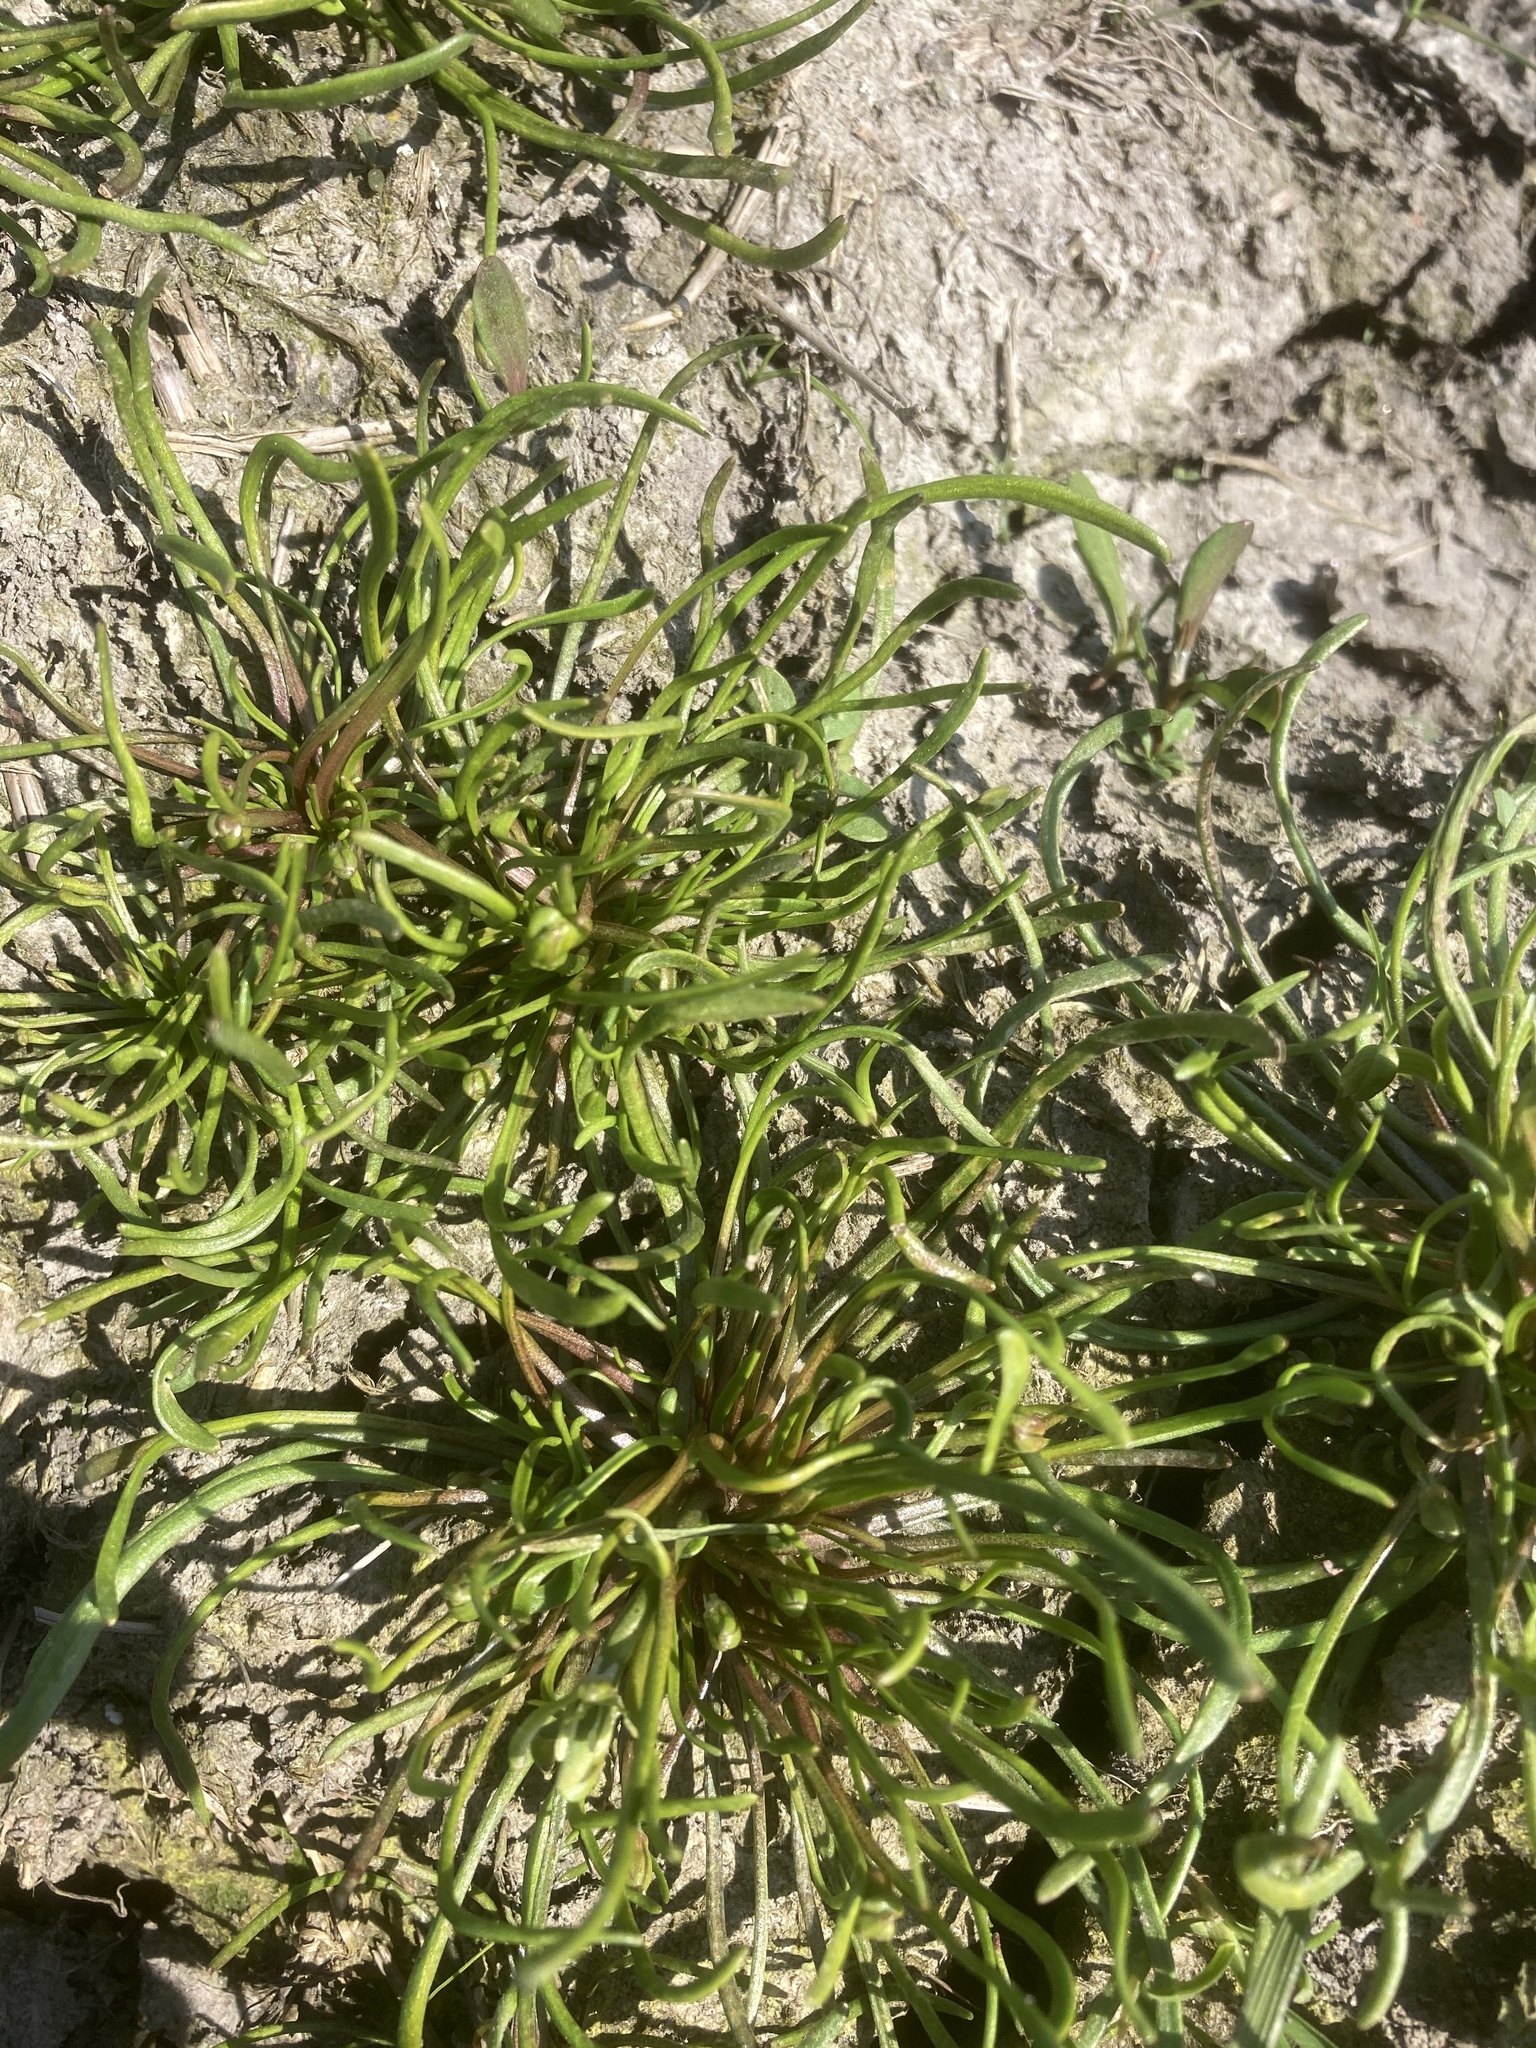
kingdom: Plantae
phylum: Tracheophyta
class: Magnoliopsida
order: Ranunculales
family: Ranunculaceae
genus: Myosurus
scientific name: Myosurus minimus
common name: Mousetail
